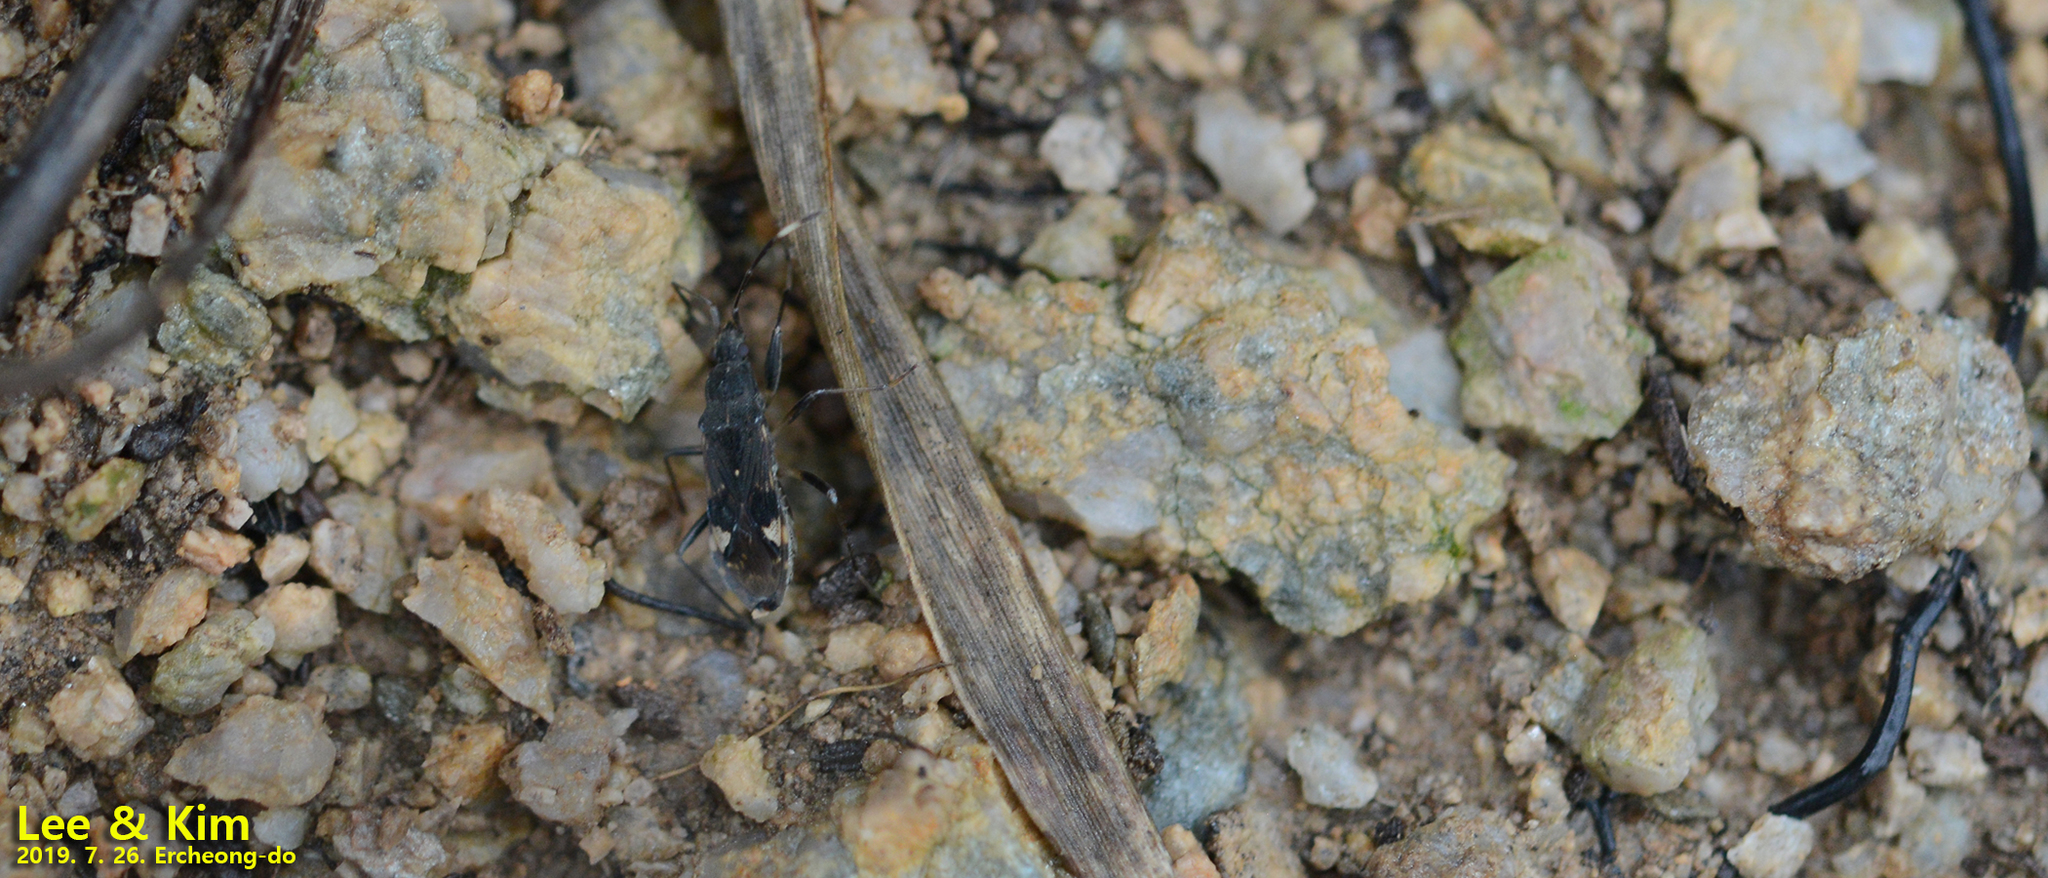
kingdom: Animalia
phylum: Arthropoda
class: Insecta
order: Hemiptera
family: Rhyparochromidae
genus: Metochus
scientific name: Metochus abbreviatus
